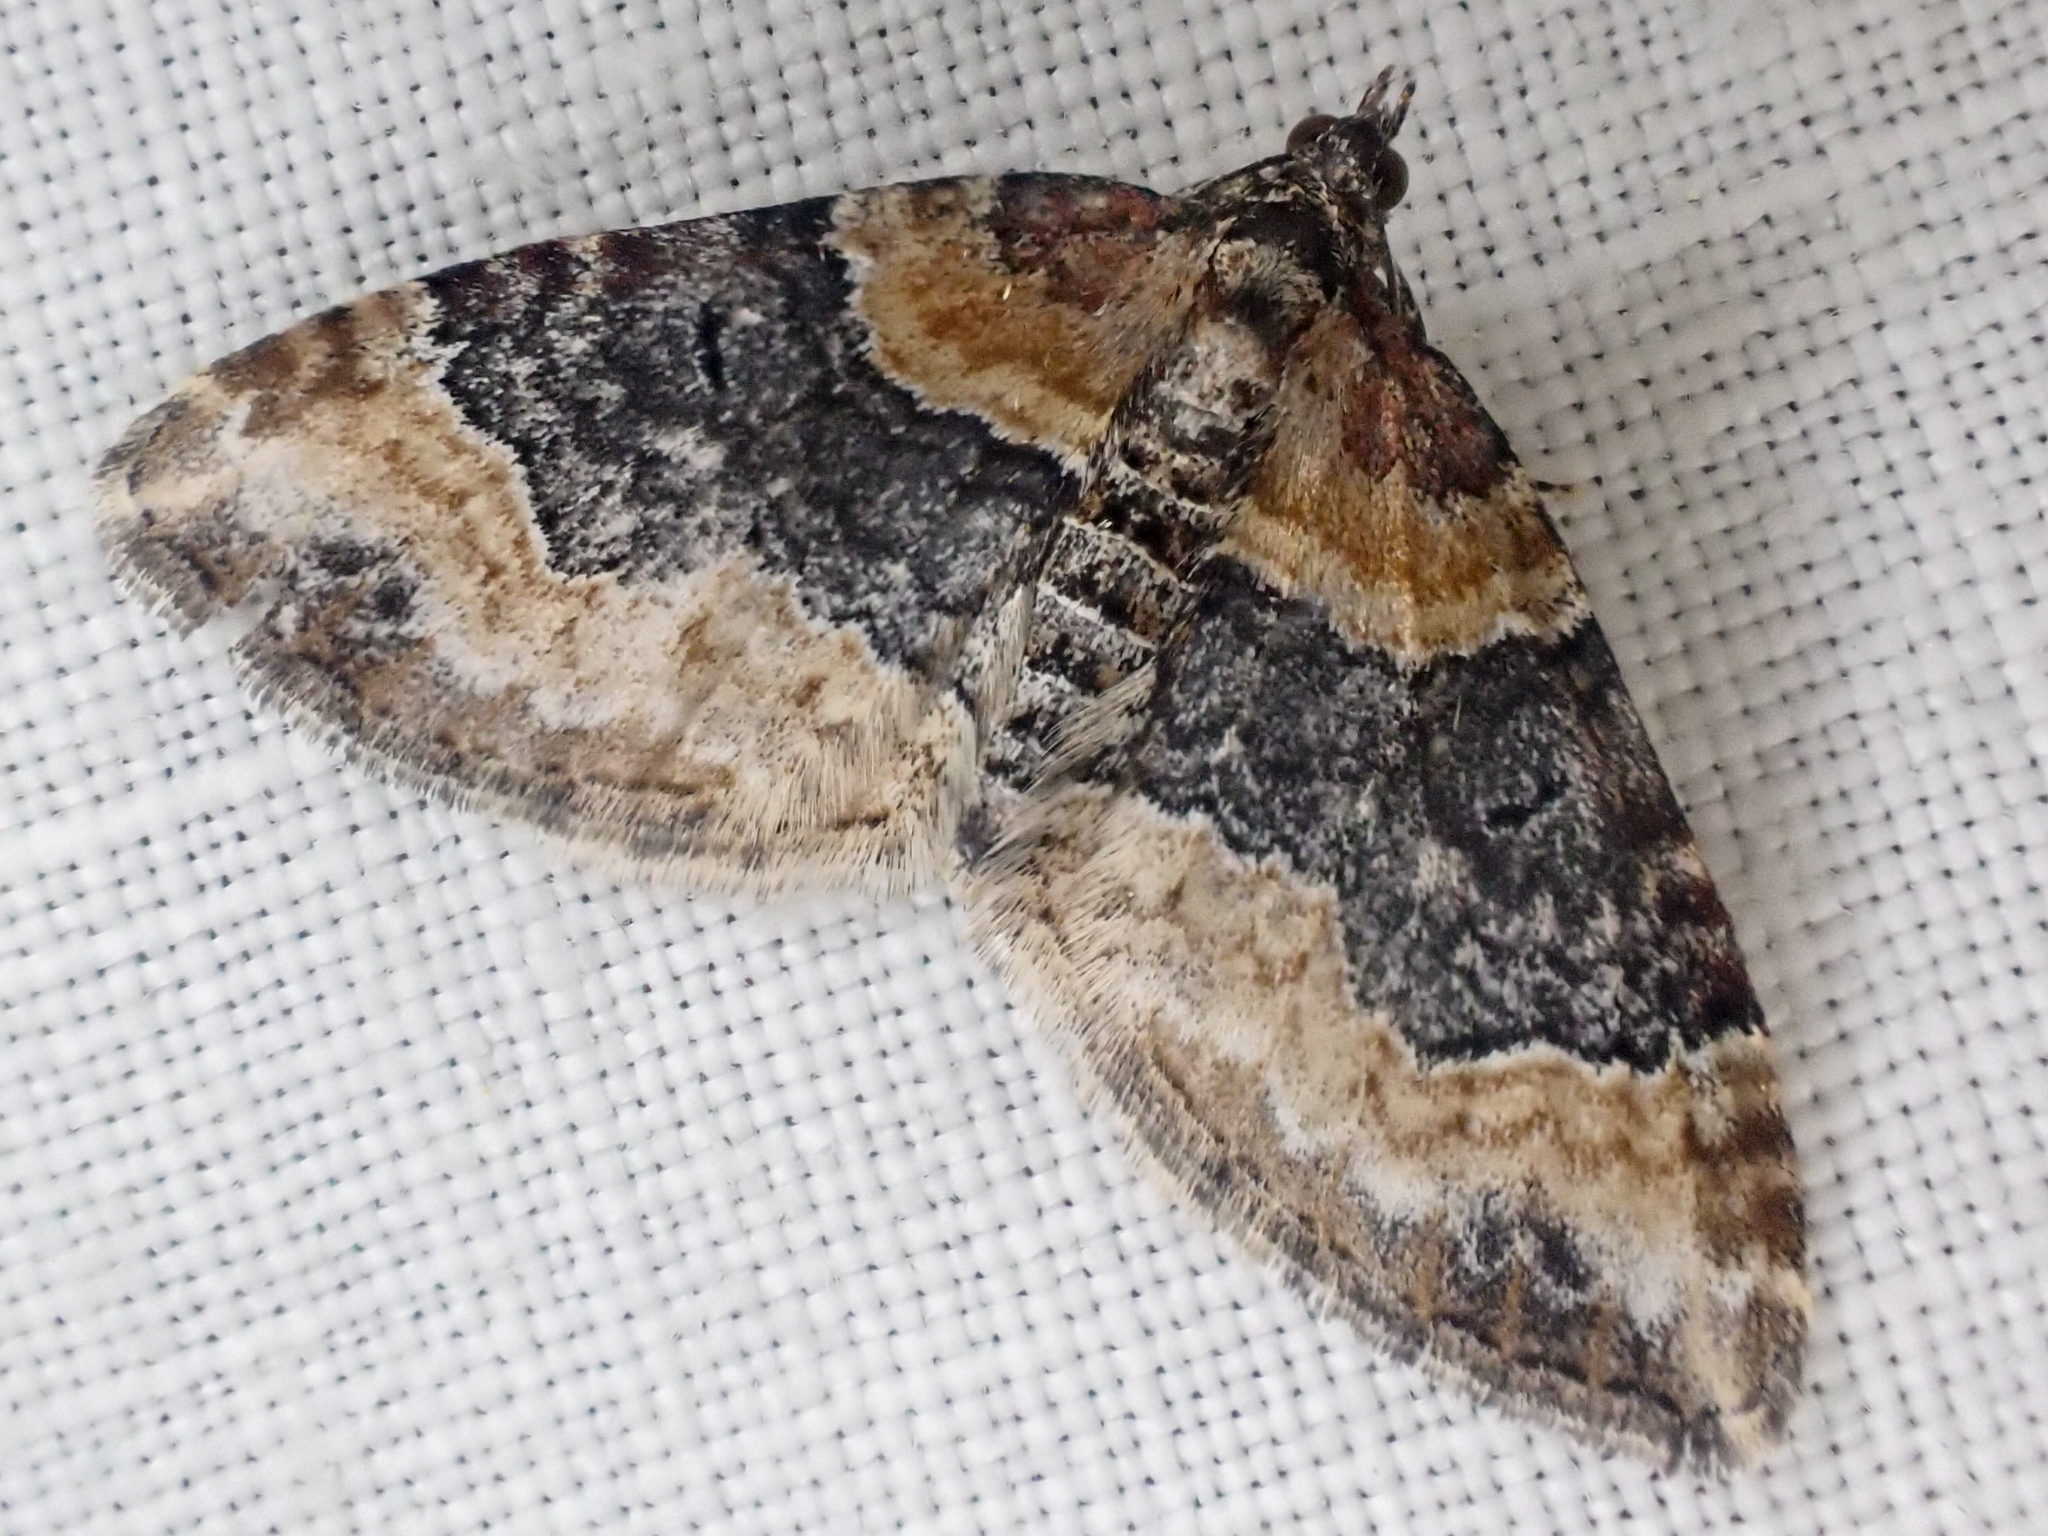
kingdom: Animalia
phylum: Arthropoda
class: Insecta
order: Lepidoptera
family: Geometridae
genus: Xanthorhoe
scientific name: Xanthorhoe ferrugata
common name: Dark-barred twin-spot carpet
